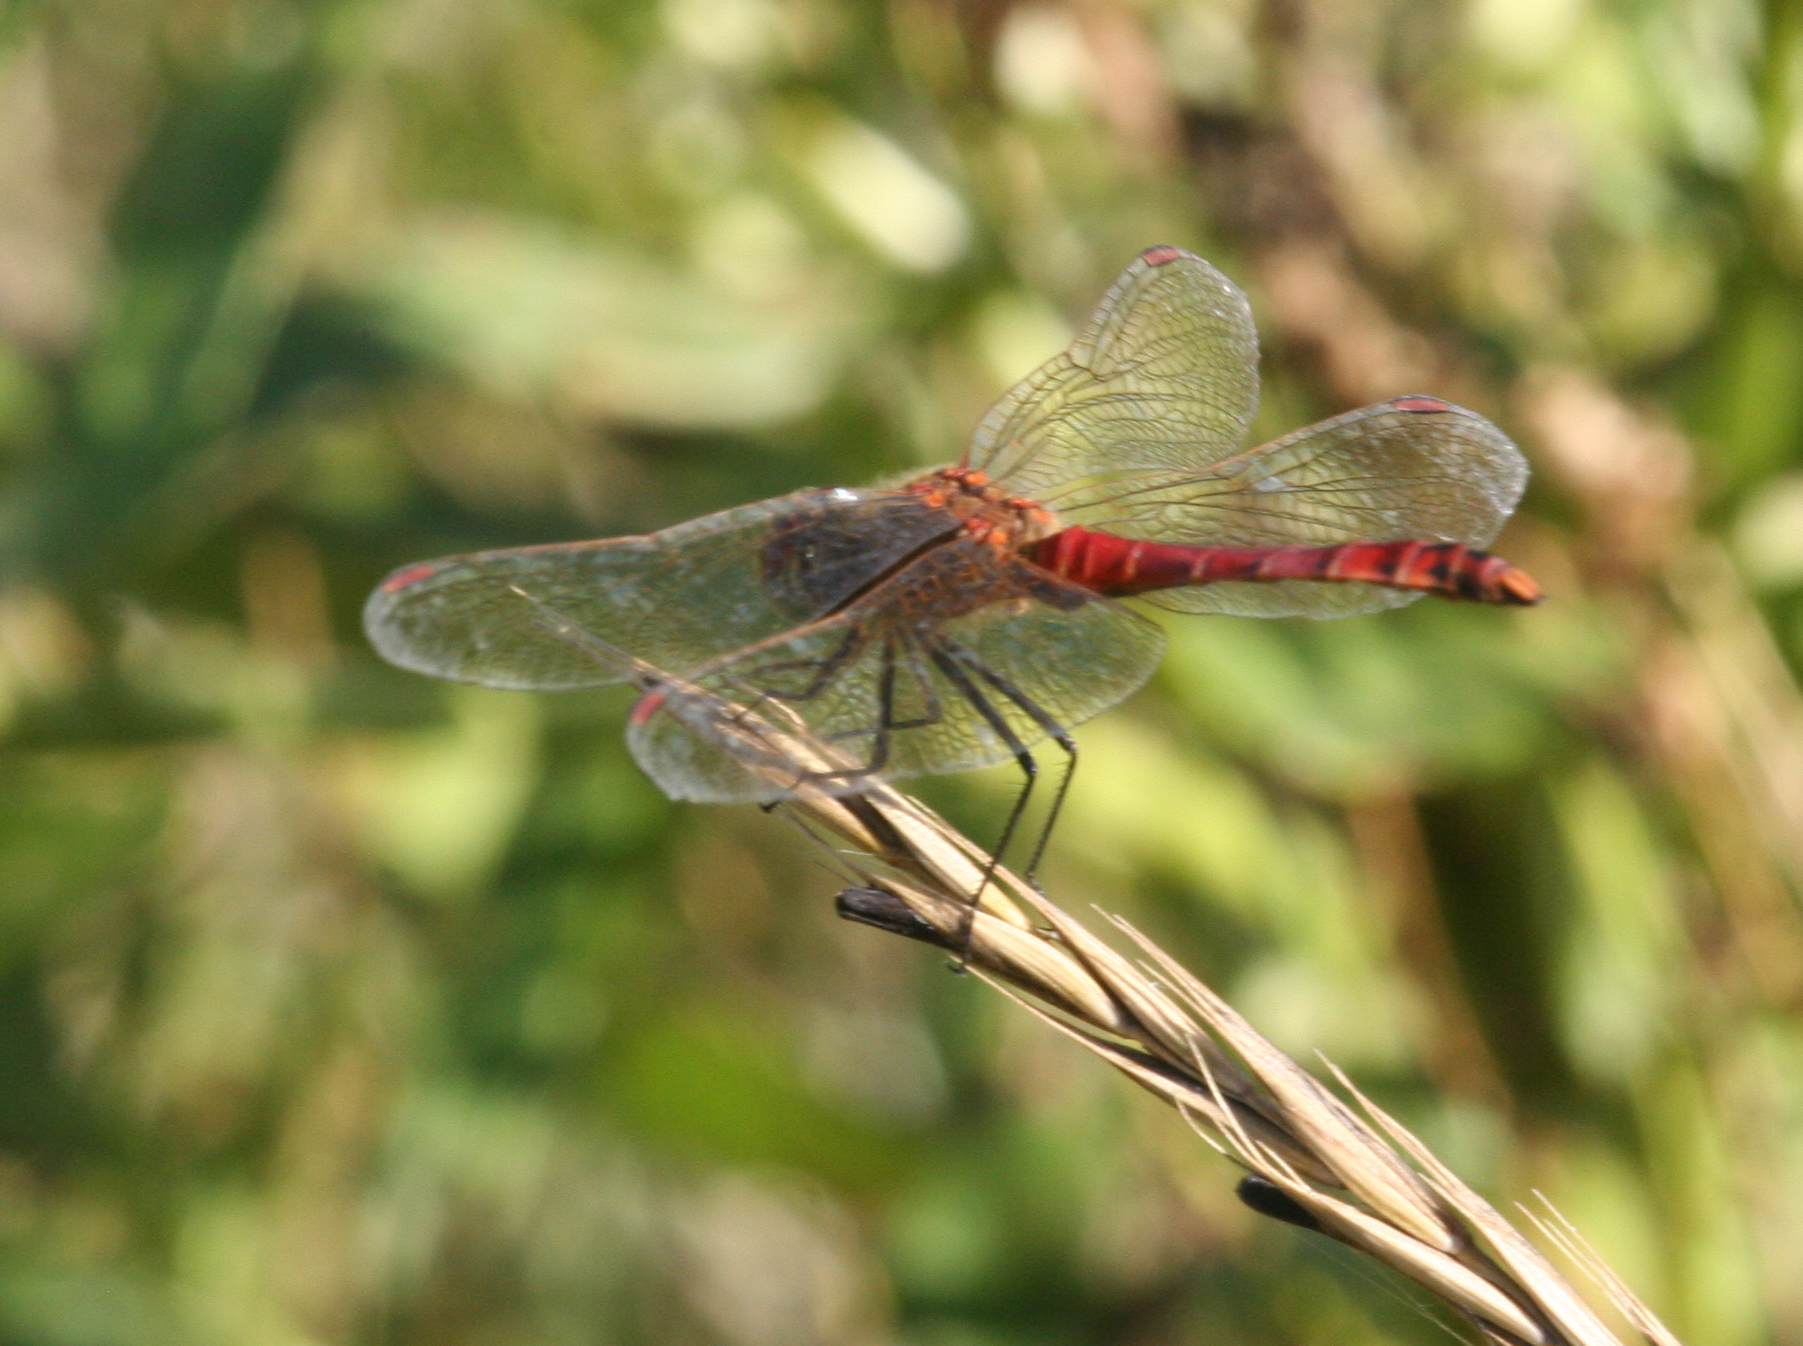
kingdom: Animalia
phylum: Arthropoda
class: Insecta
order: Odonata
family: Libellulidae
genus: Sympetrum
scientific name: Sympetrum depressiusculum
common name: Spotted darter
